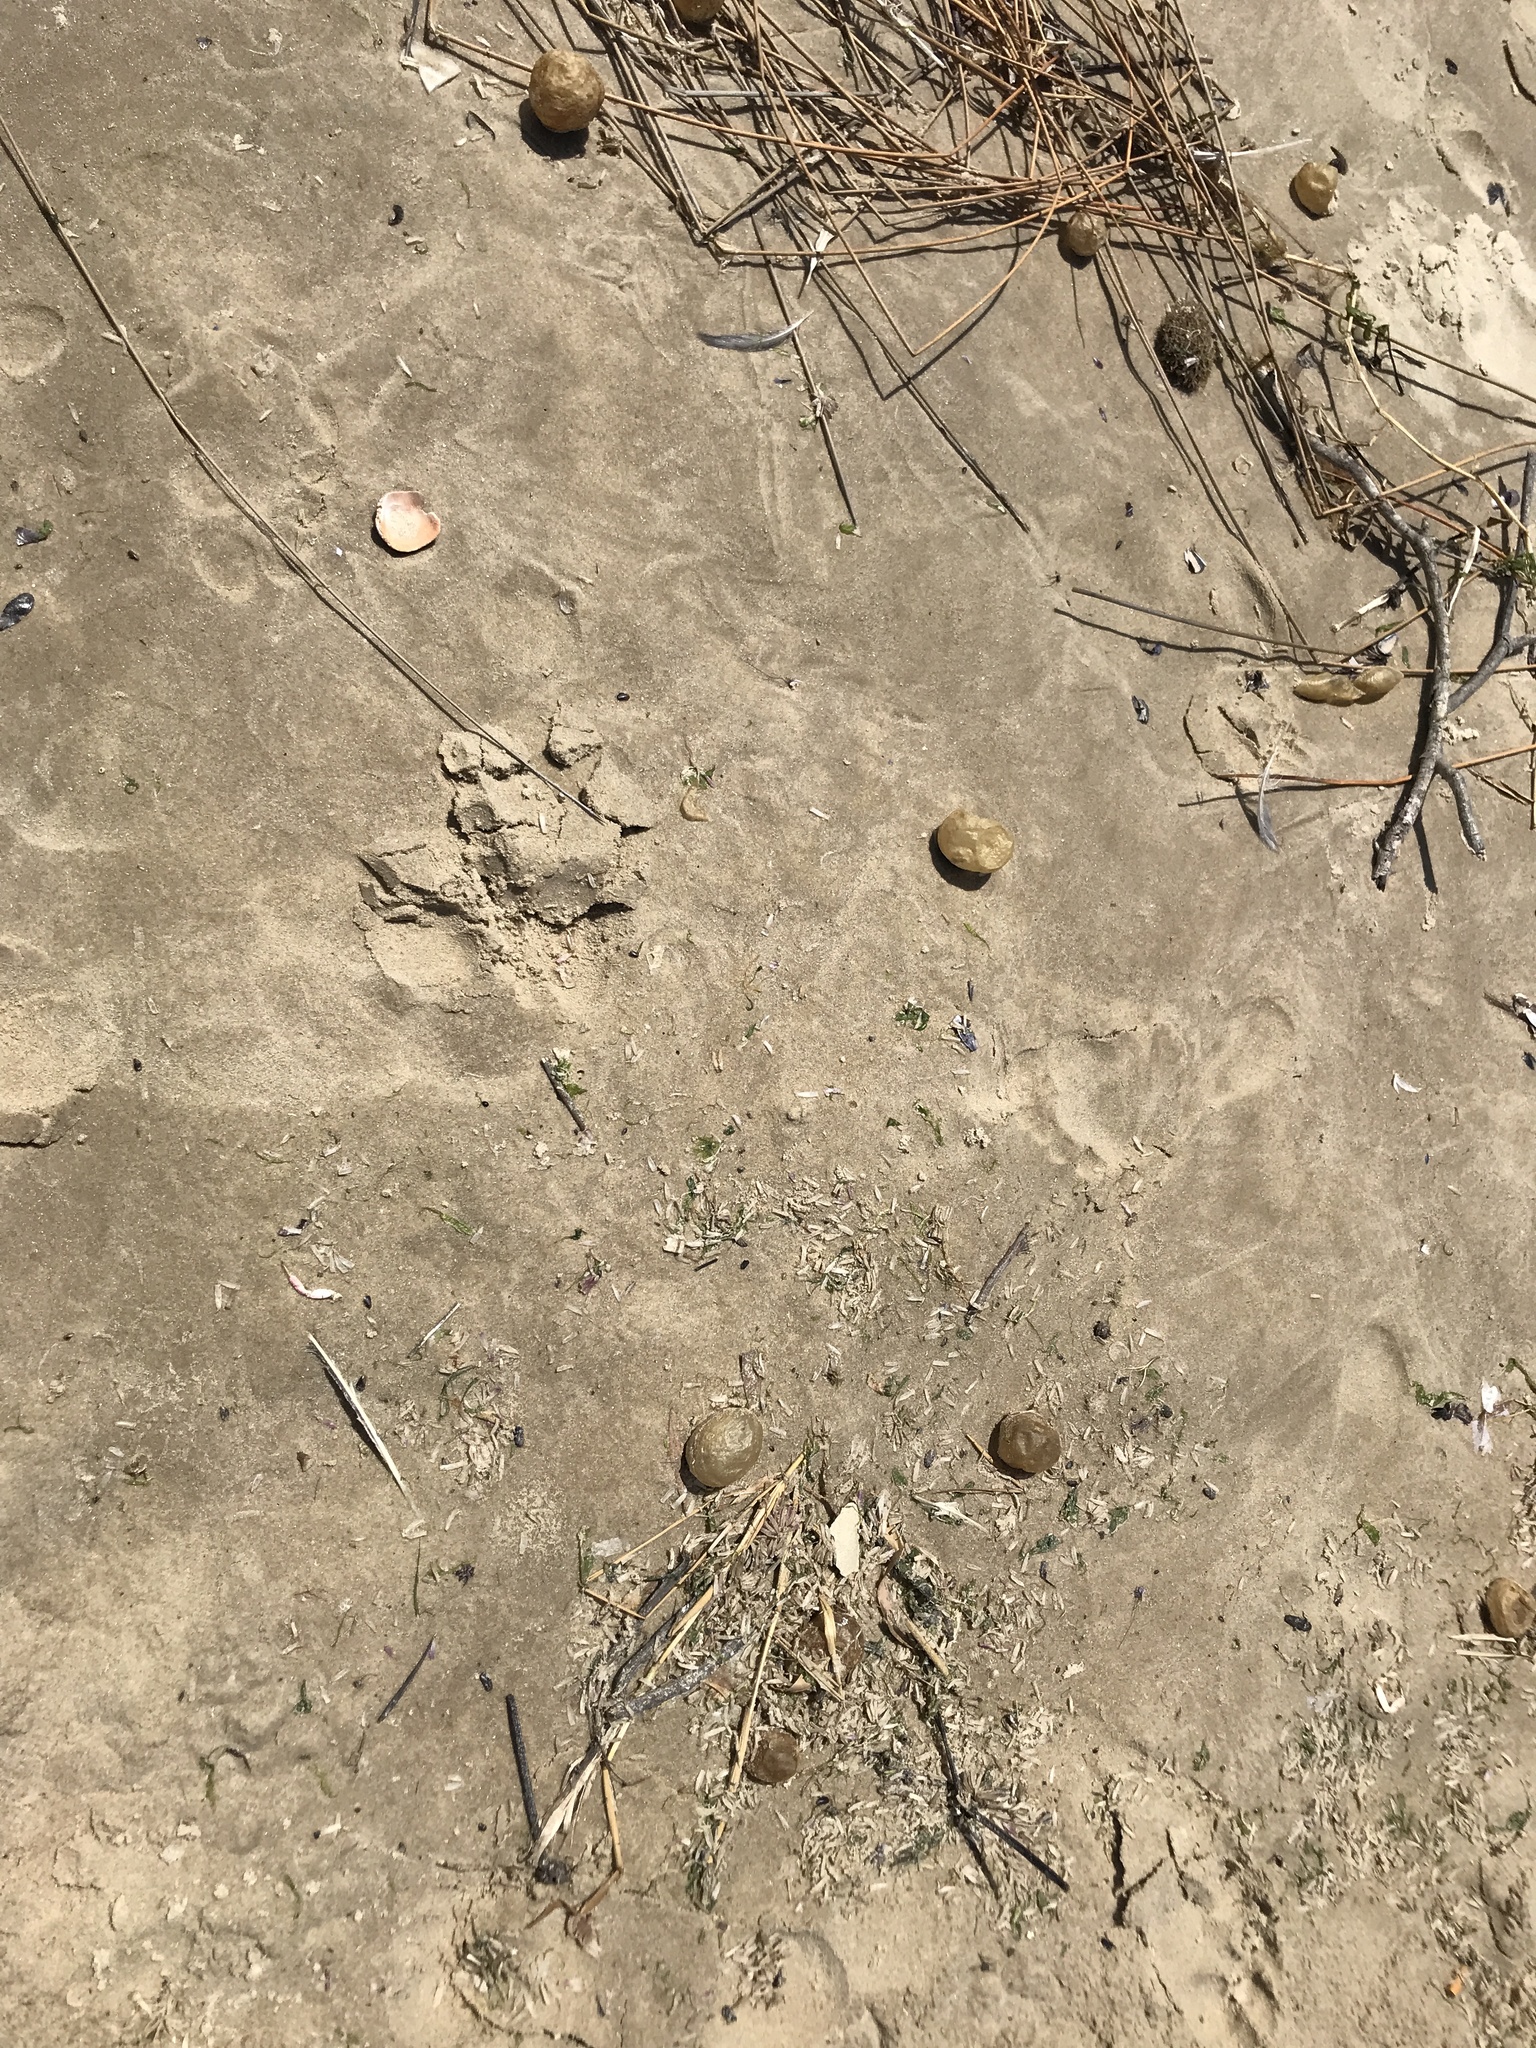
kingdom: Animalia
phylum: Mollusca
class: Gastropoda
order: Neogastropoda
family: Volutidae
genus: Pachycymbiola
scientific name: Pachycymbiola brasiliana
